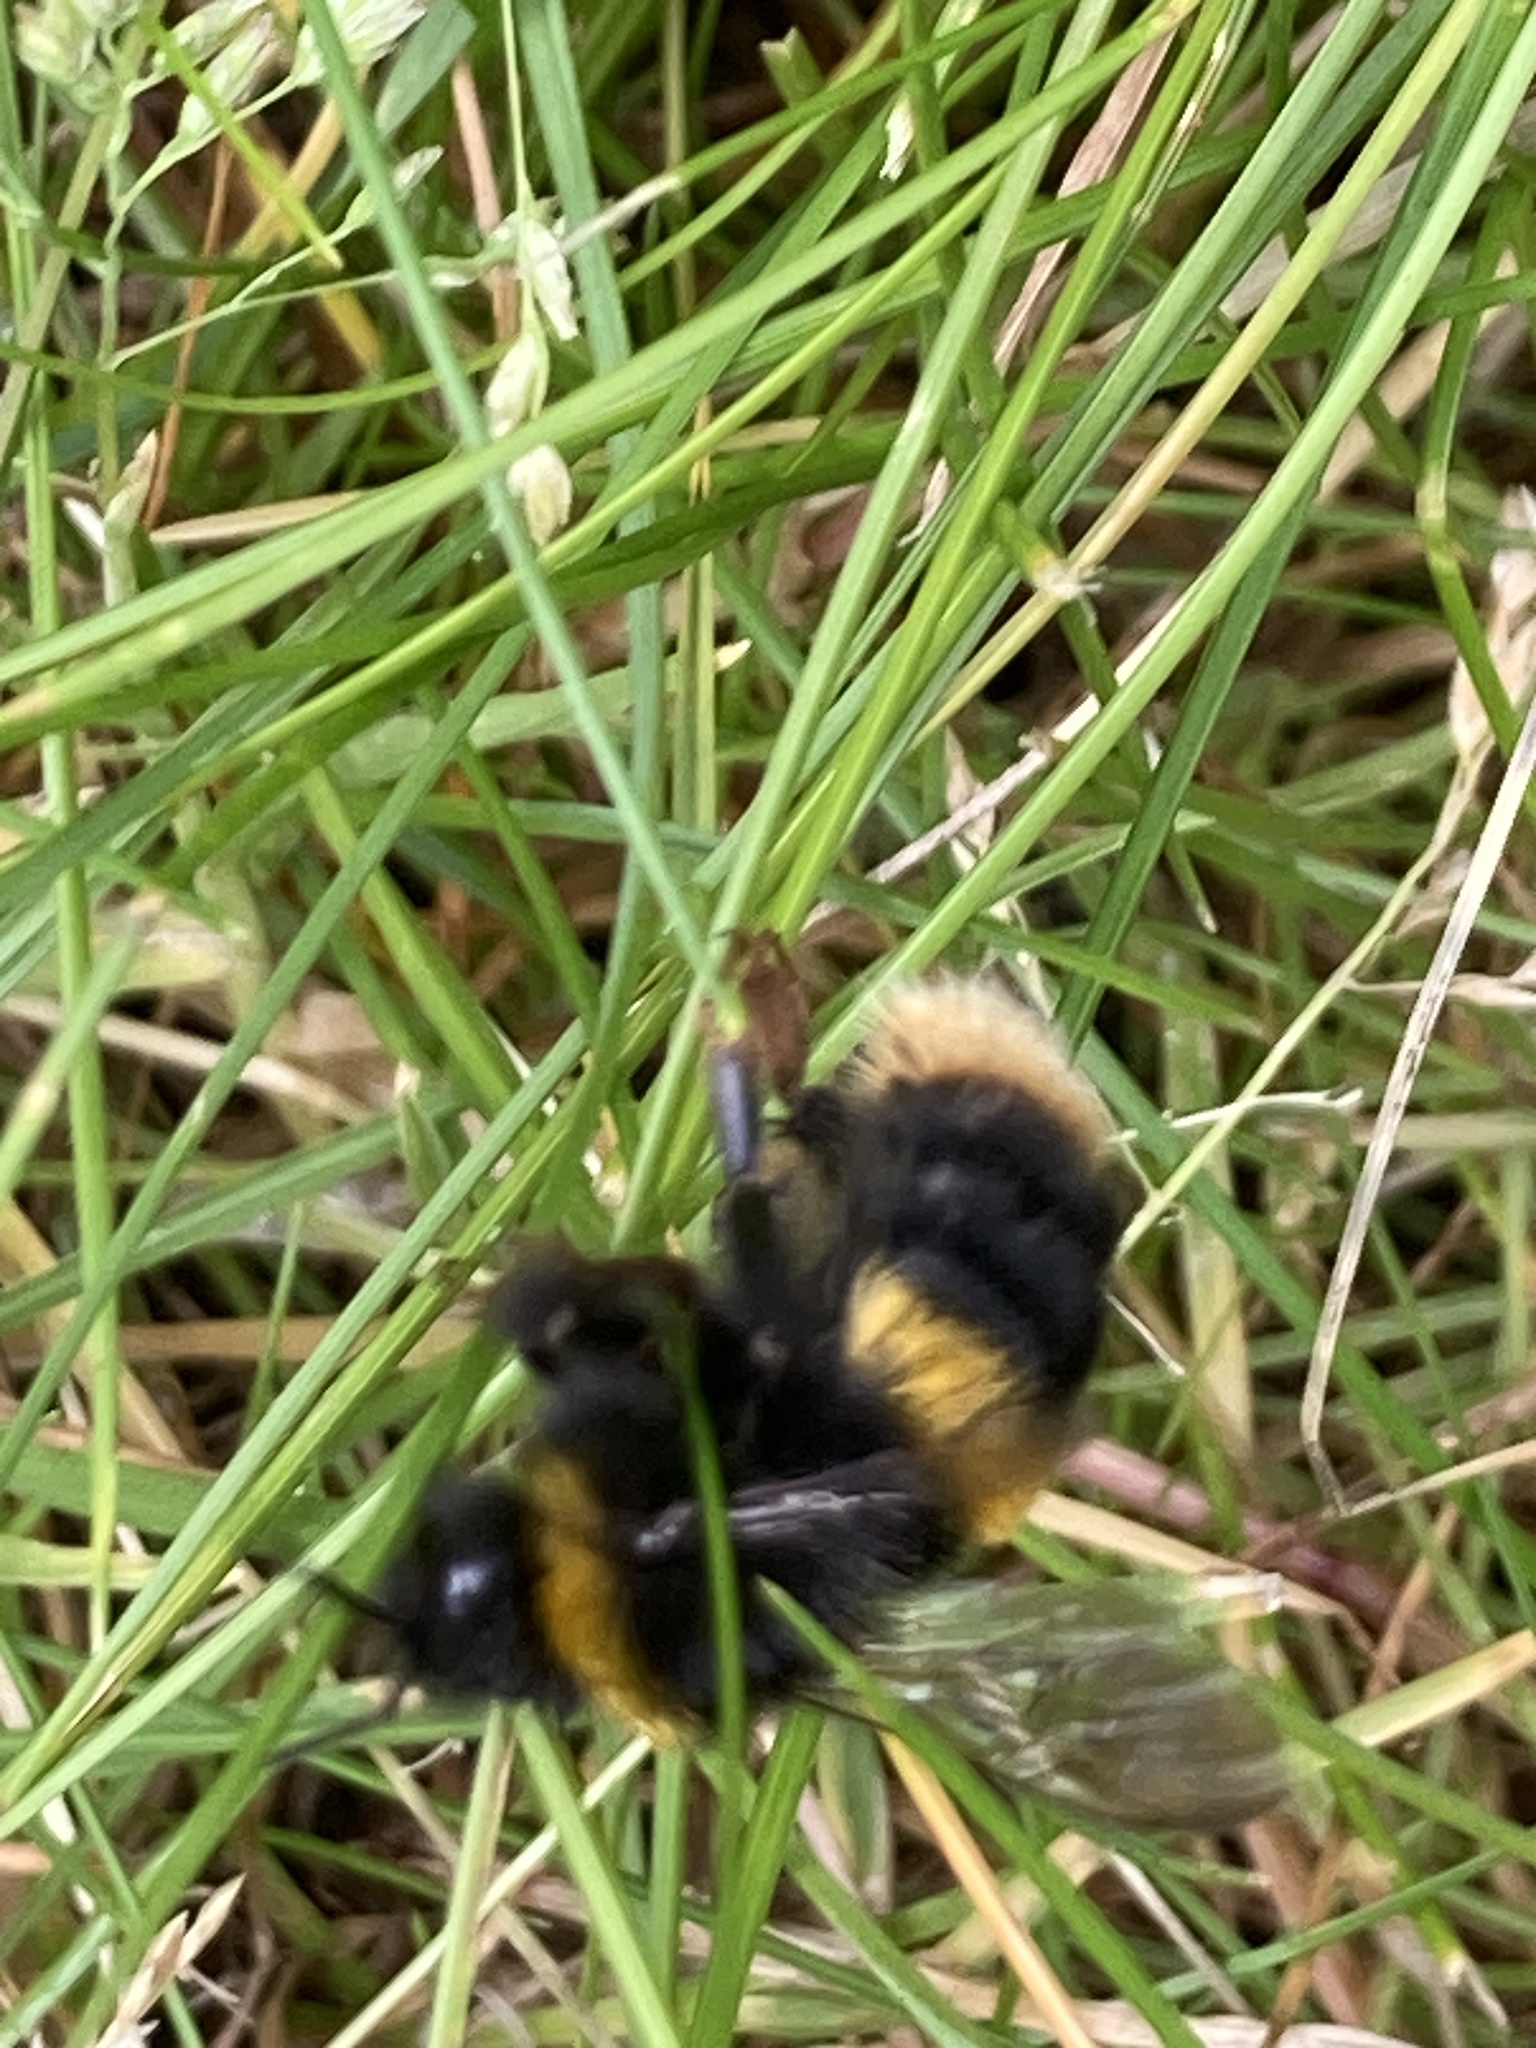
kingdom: Animalia
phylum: Arthropoda
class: Insecta
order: Hymenoptera
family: Apidae
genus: Bombus
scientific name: Bombus terrestris
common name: Buff-tailed bumblebee
